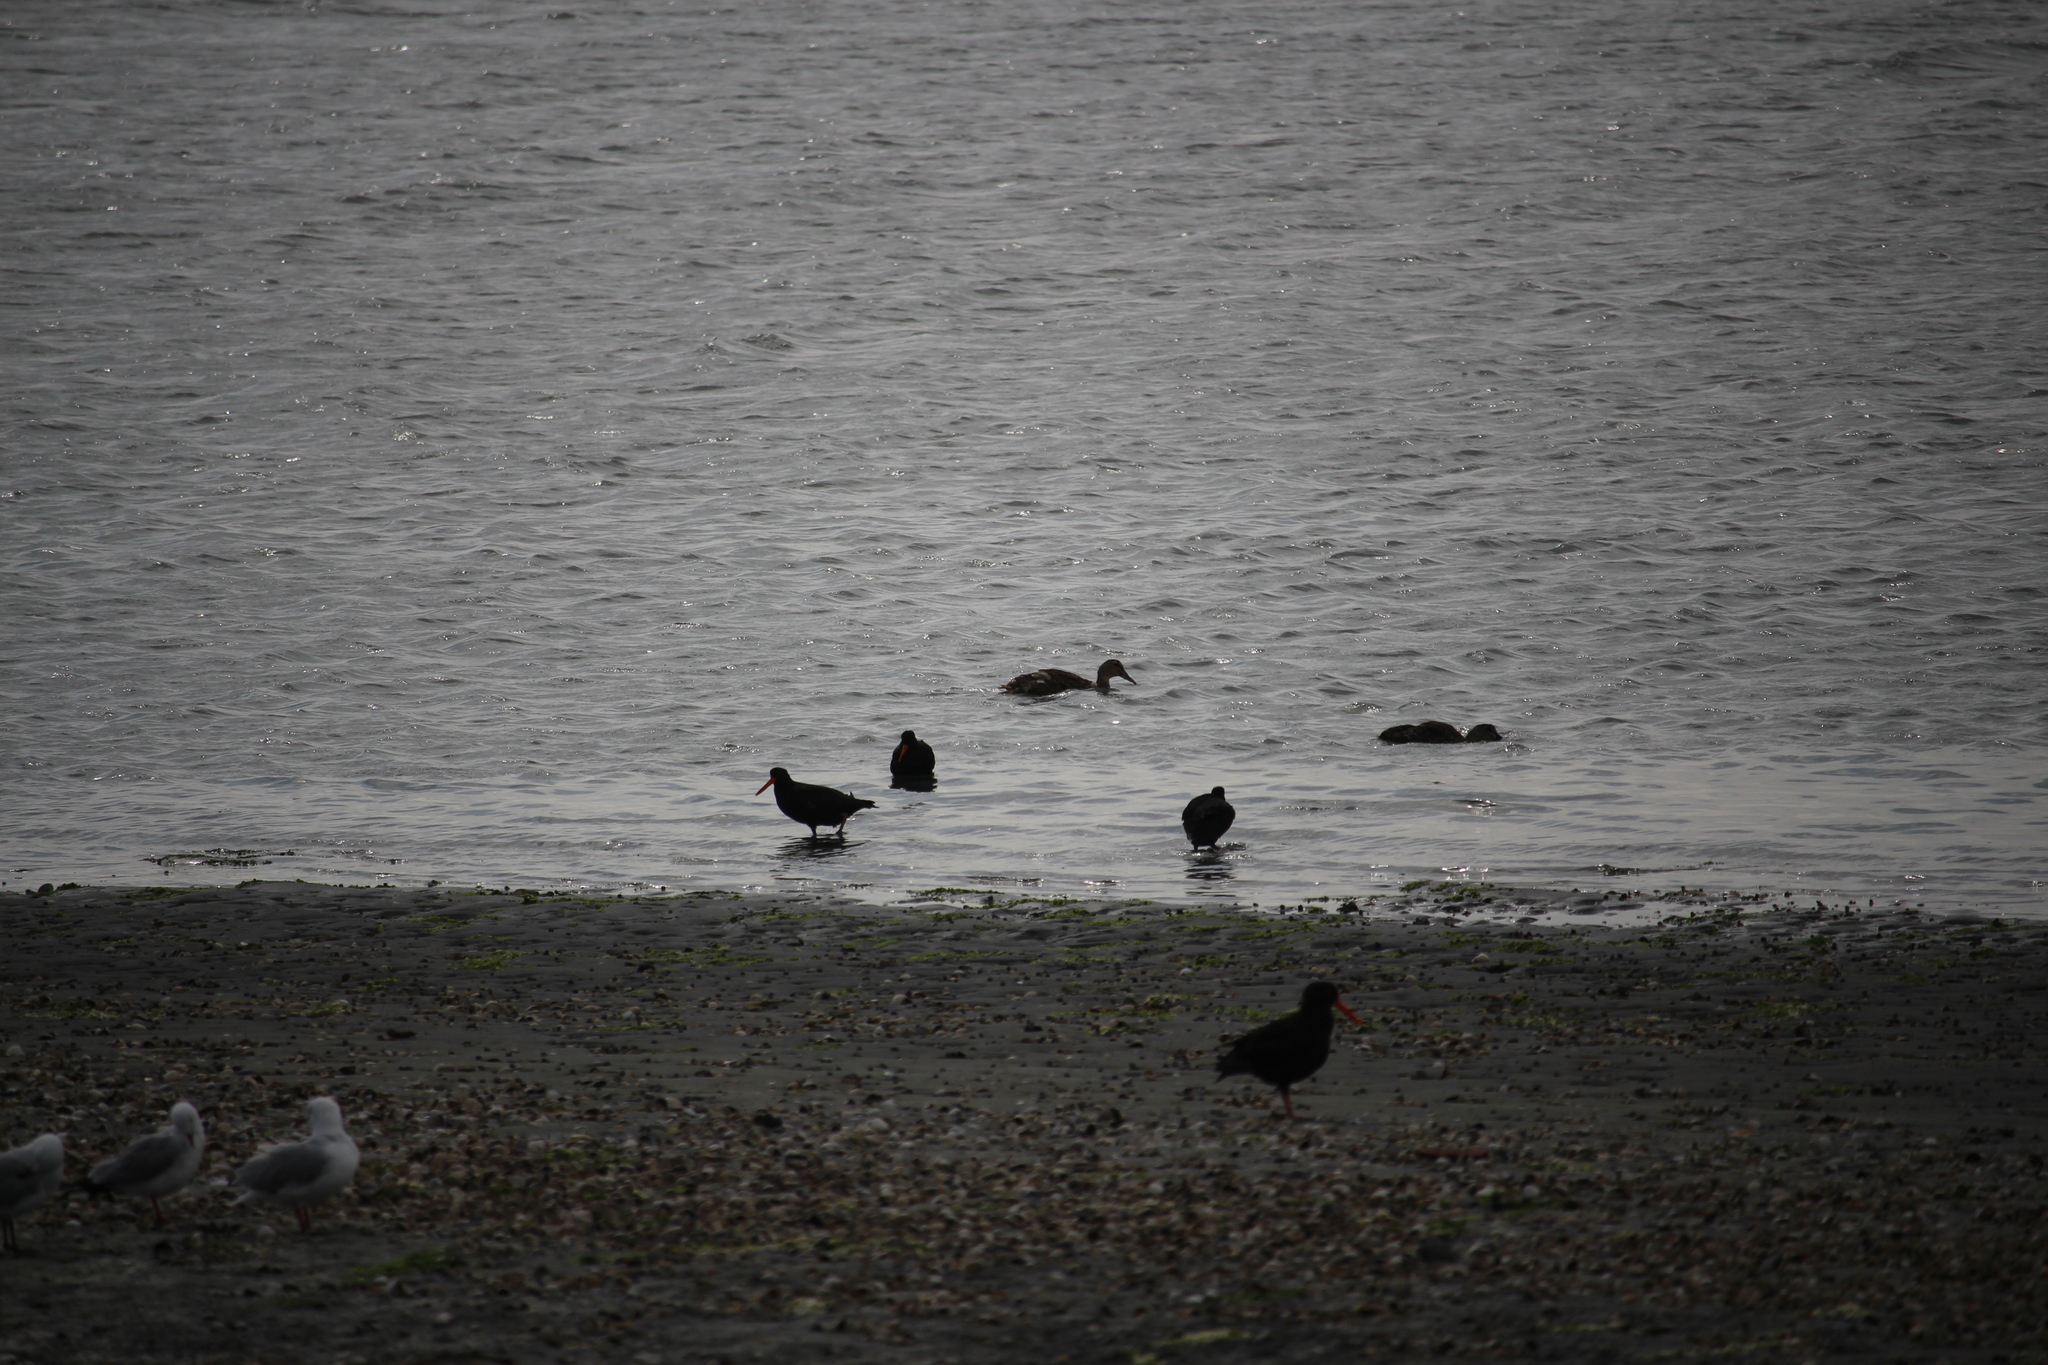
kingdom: Animalia
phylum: Chordata
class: Aves
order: Anseriformes
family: Anatidae
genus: Anas
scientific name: Anas
